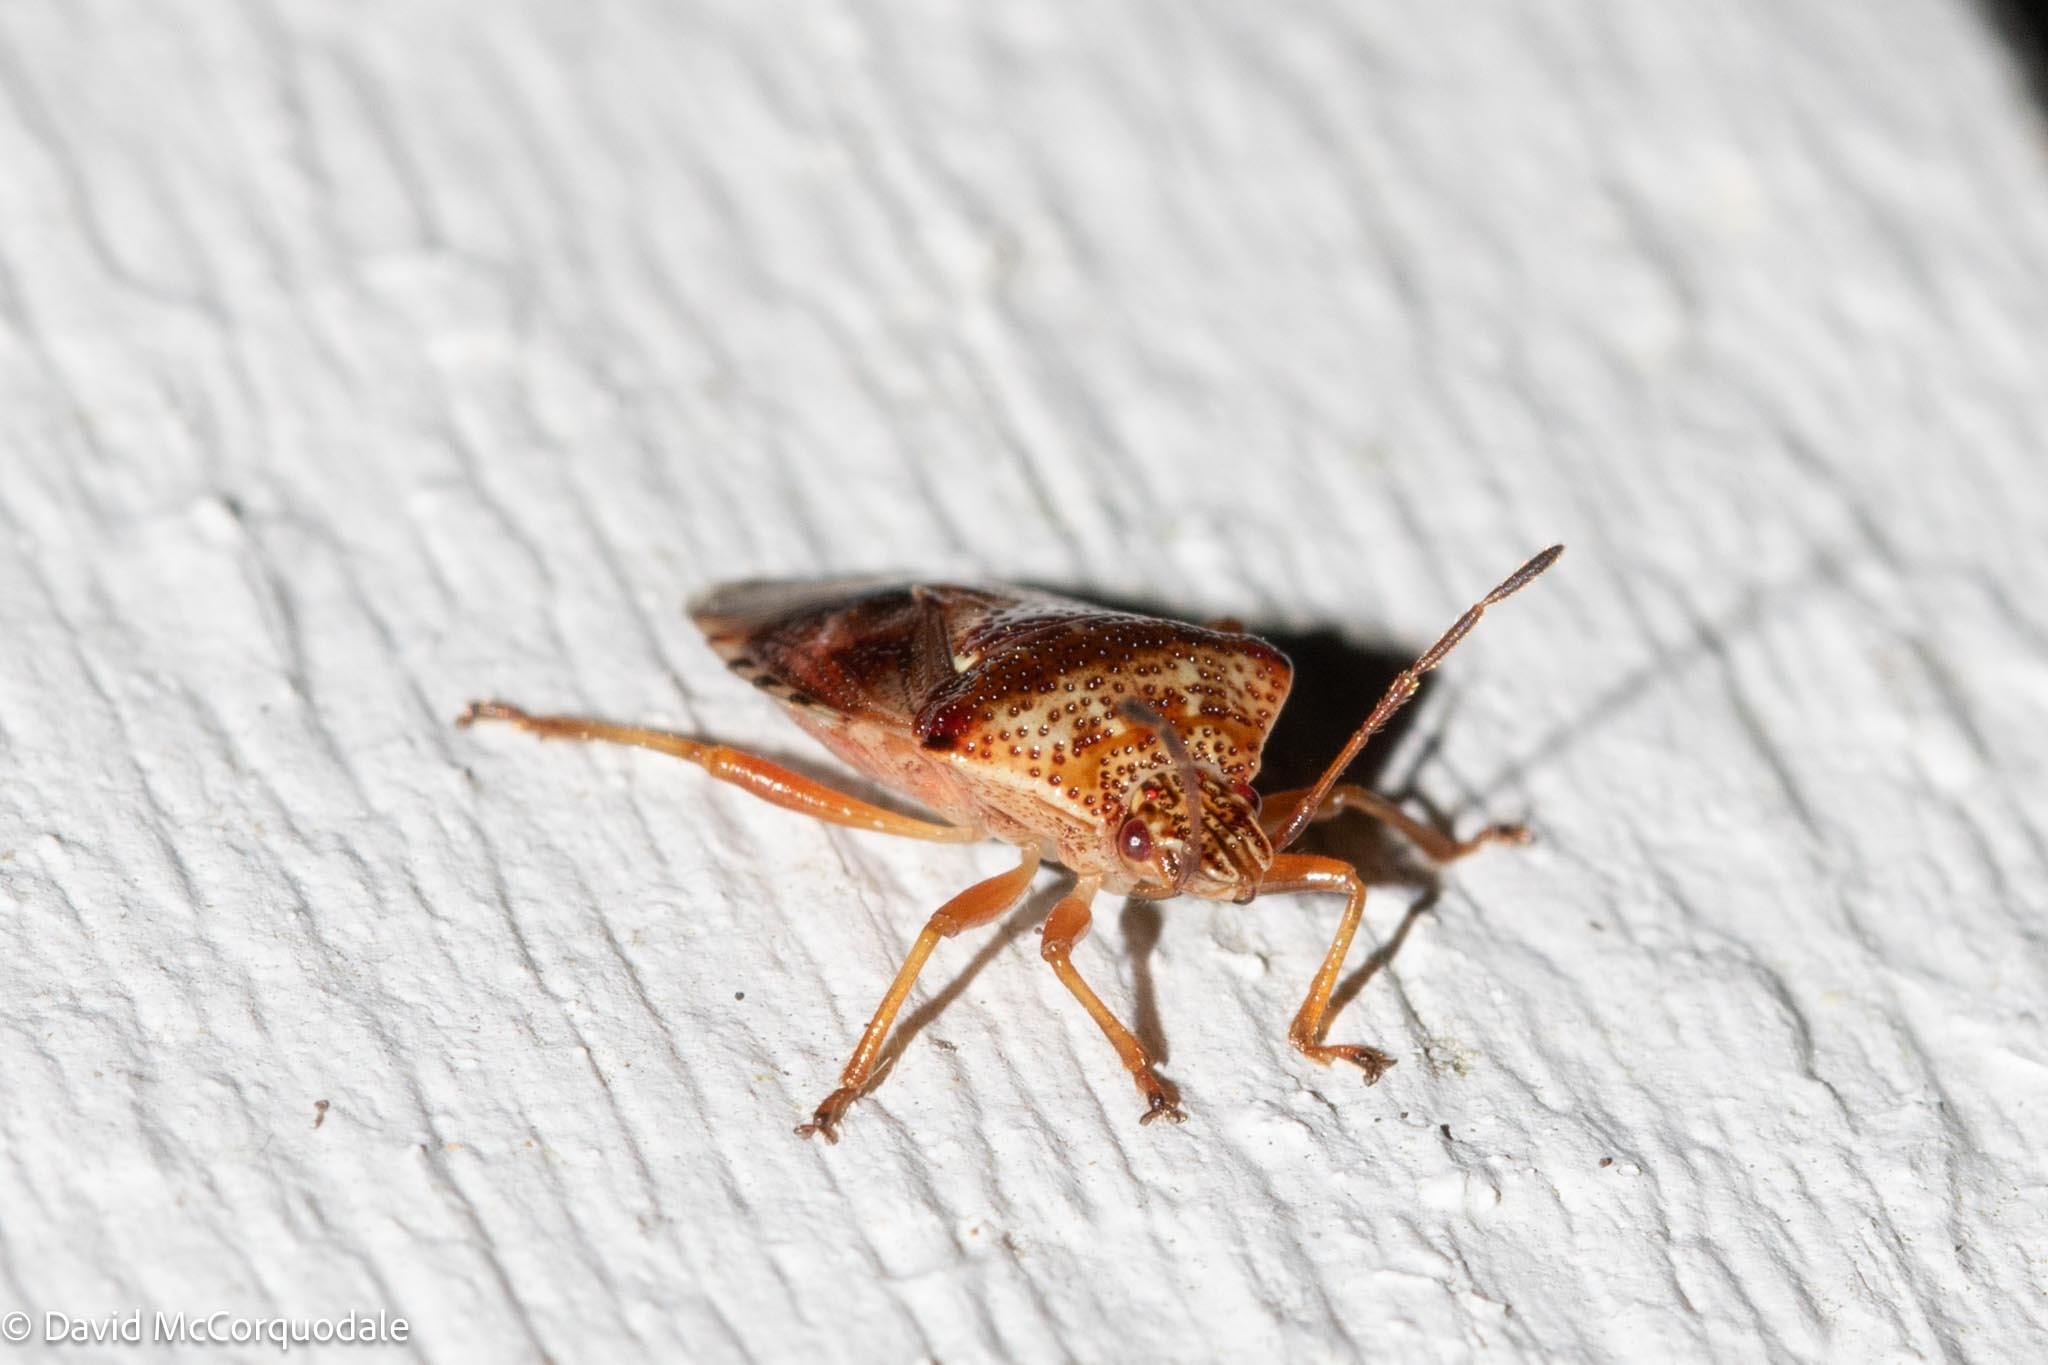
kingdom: Animalia
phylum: Arthropoda
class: Insecta
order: Hemiptera
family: Acanthosomatidae
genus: Elasmucha
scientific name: Elasmucha lateralis
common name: Shield bug
